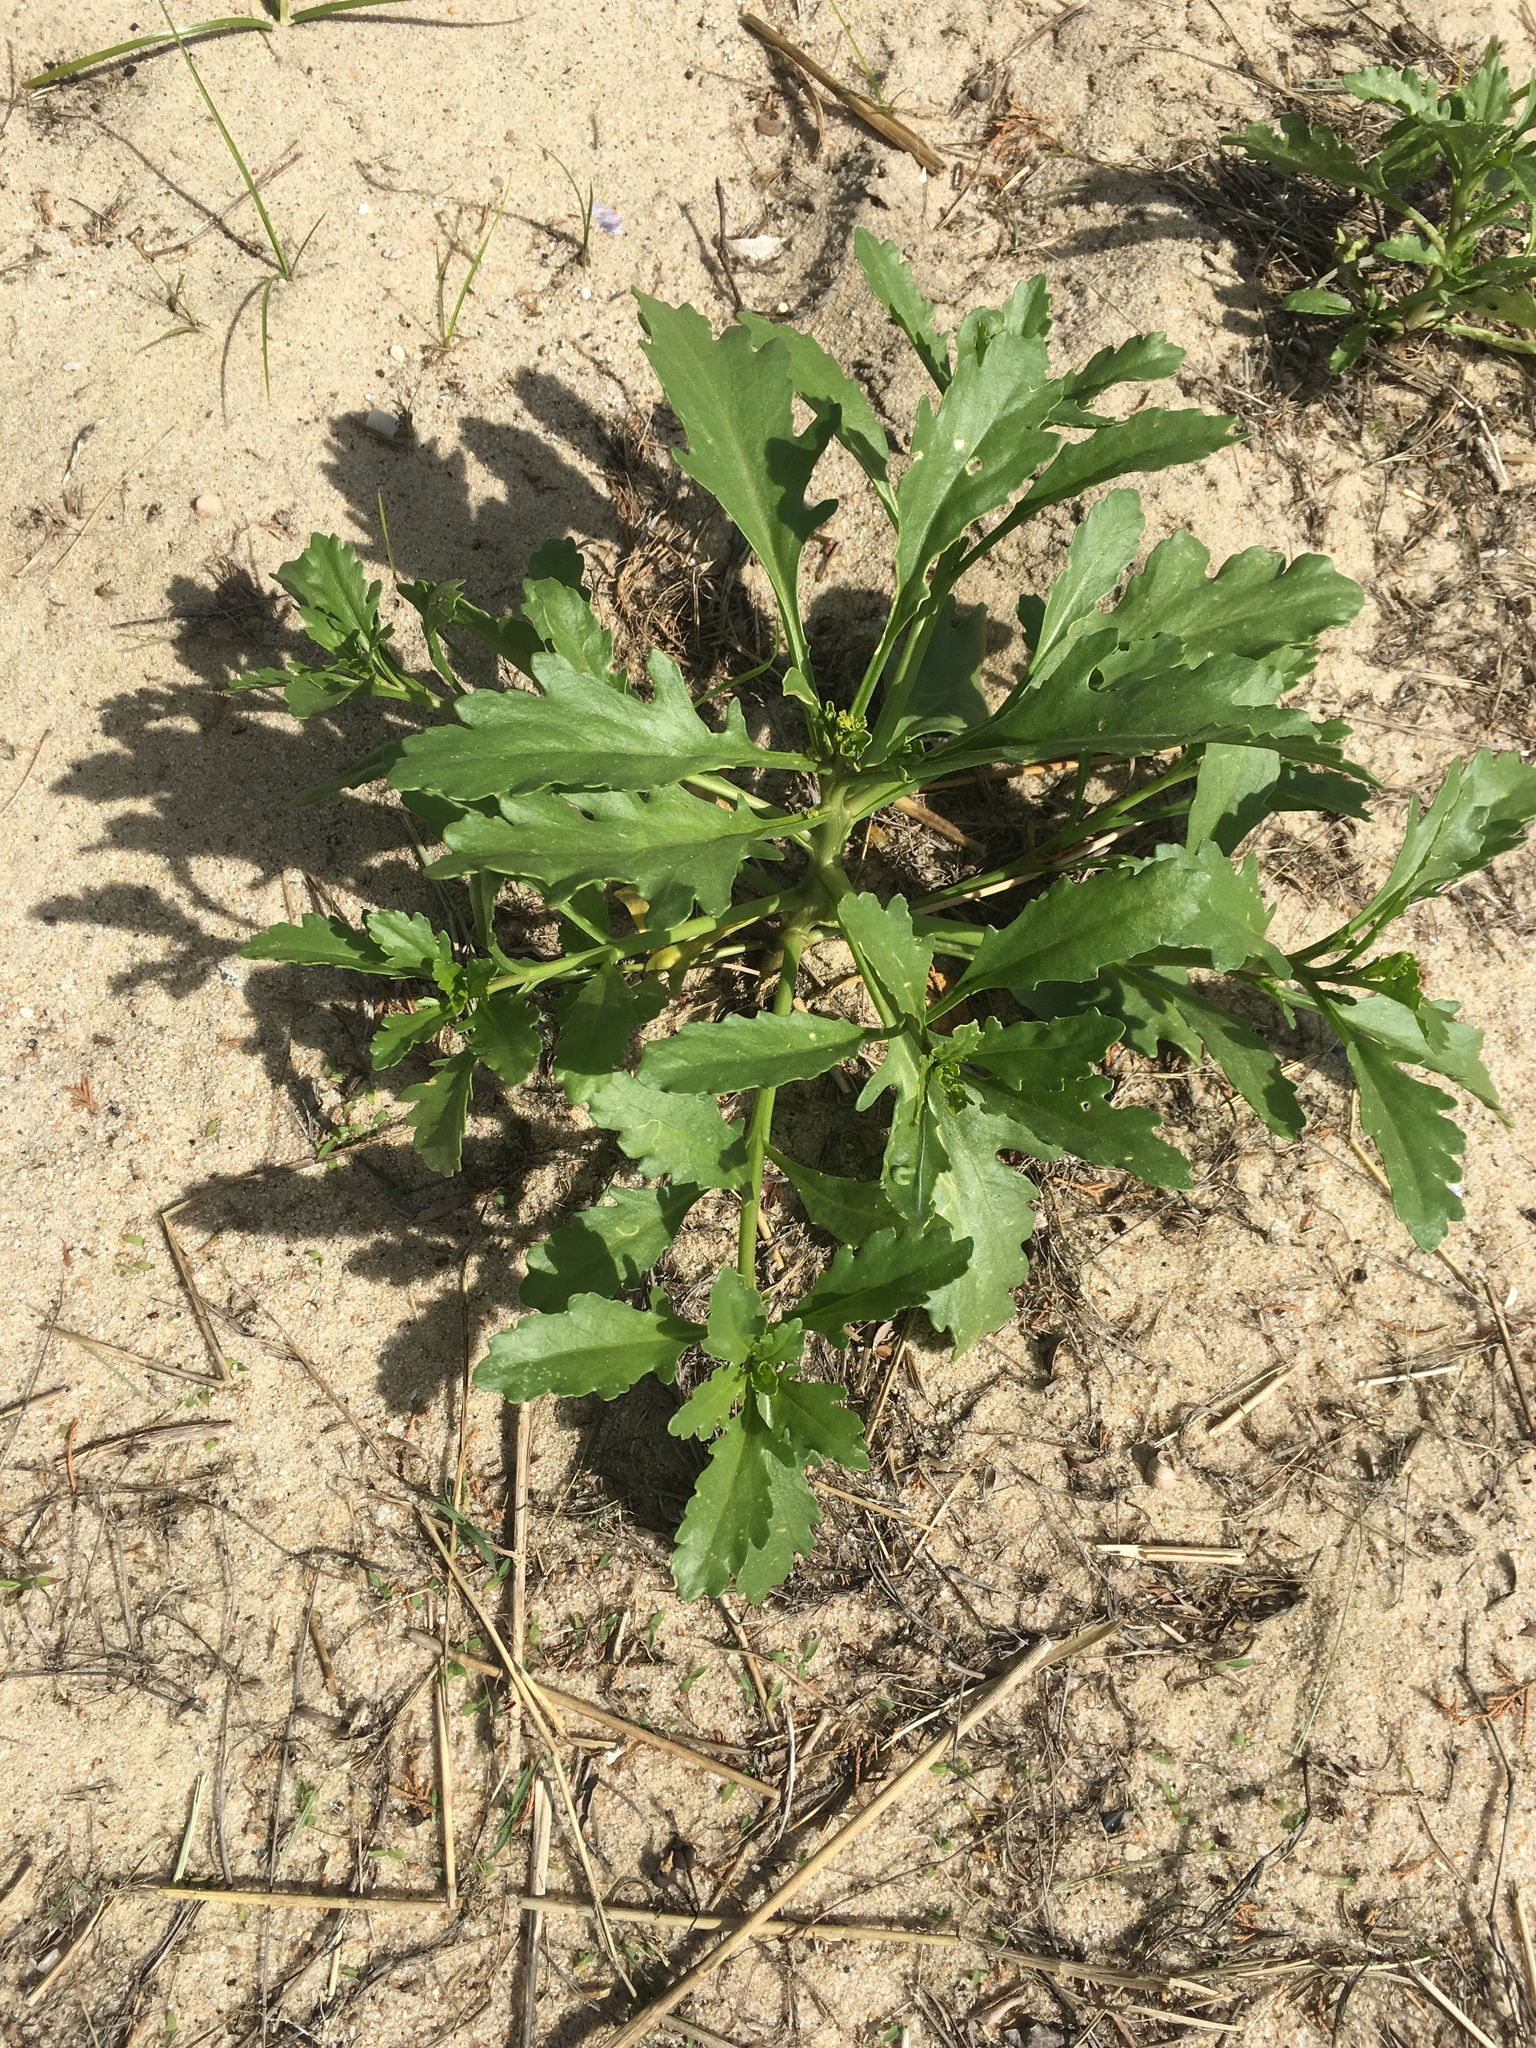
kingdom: Plantae
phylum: Tracheophyta
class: Magnoliopsida
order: Brassicales
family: Brassicaceae
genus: Cakile
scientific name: Cakile edentula
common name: American sea rocket
